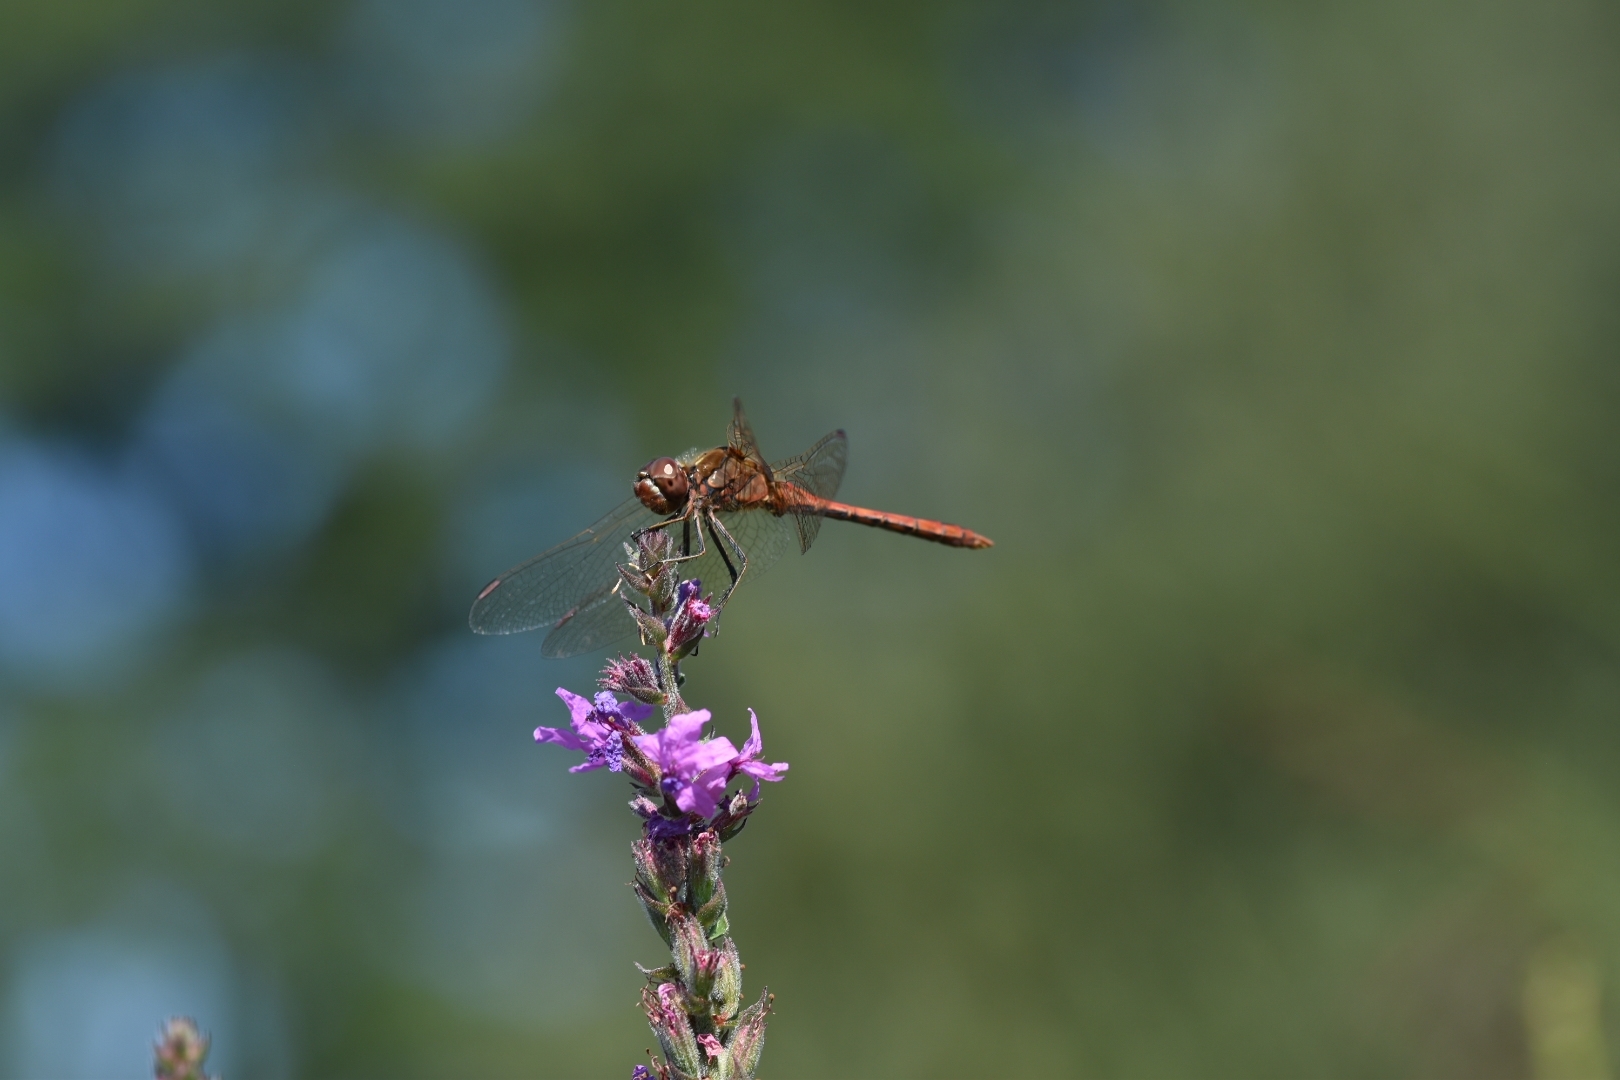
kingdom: Animalia
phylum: Arthropoda
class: Insecta
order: Odonata
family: Libellulidae
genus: Sympetrum
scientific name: Sympetrum vulgatum
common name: Vagrant darter
